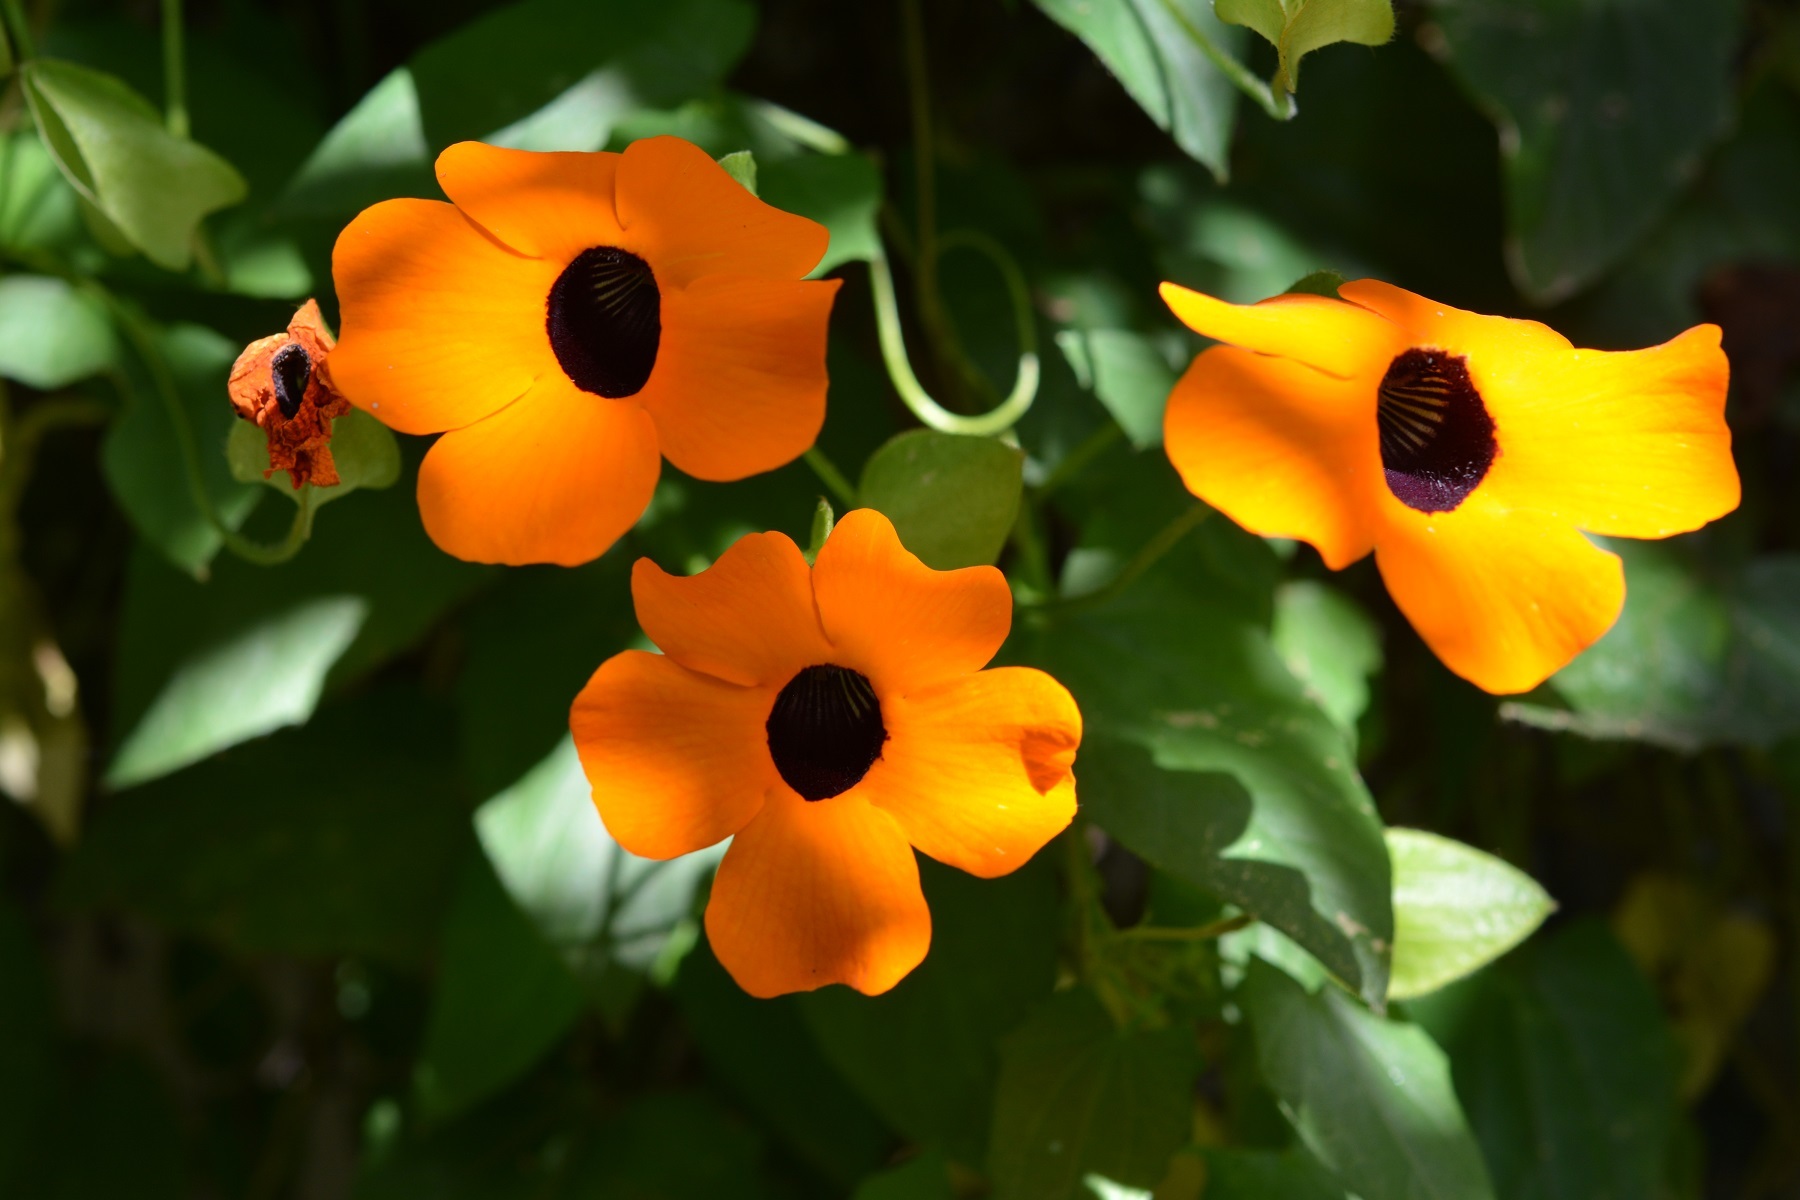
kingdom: Plantae
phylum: Tracheophyta
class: Magnoliopsida
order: Lamiales
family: Acanthaceae
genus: Thunbergia
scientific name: Thunbergia alata
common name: Blackeyed susan vine
